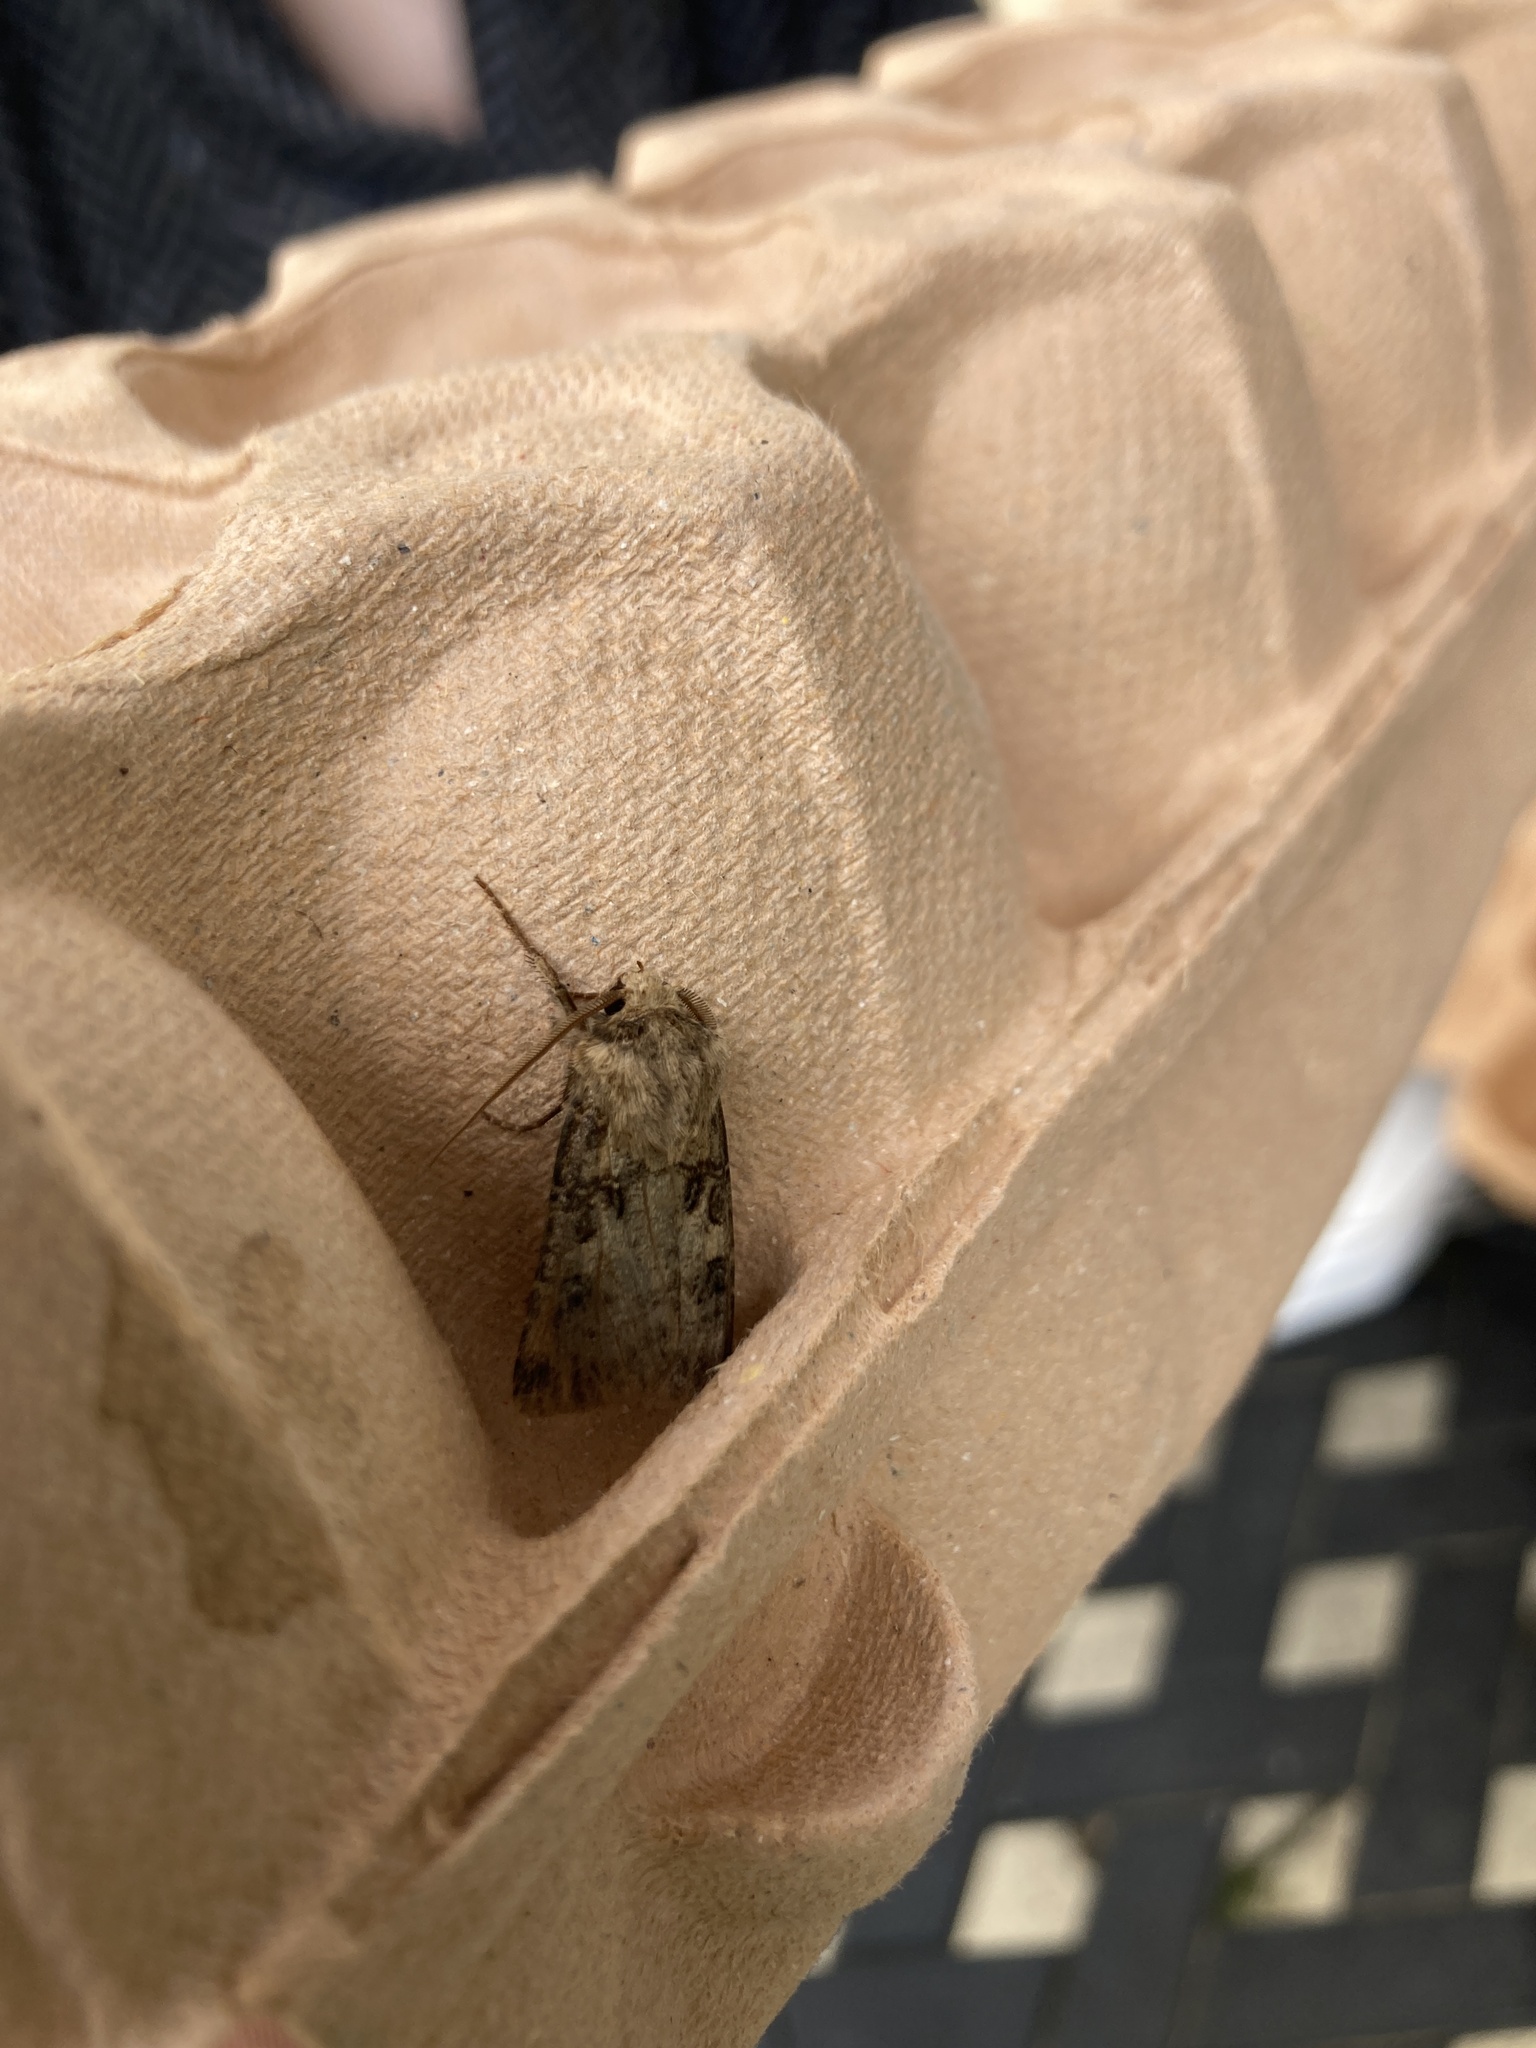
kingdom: Animalia
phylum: Arthropoda
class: Insecta
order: Lepidoptera
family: Noctuidae
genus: Agrotis
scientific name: Agrotis clavis
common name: Heart and club
